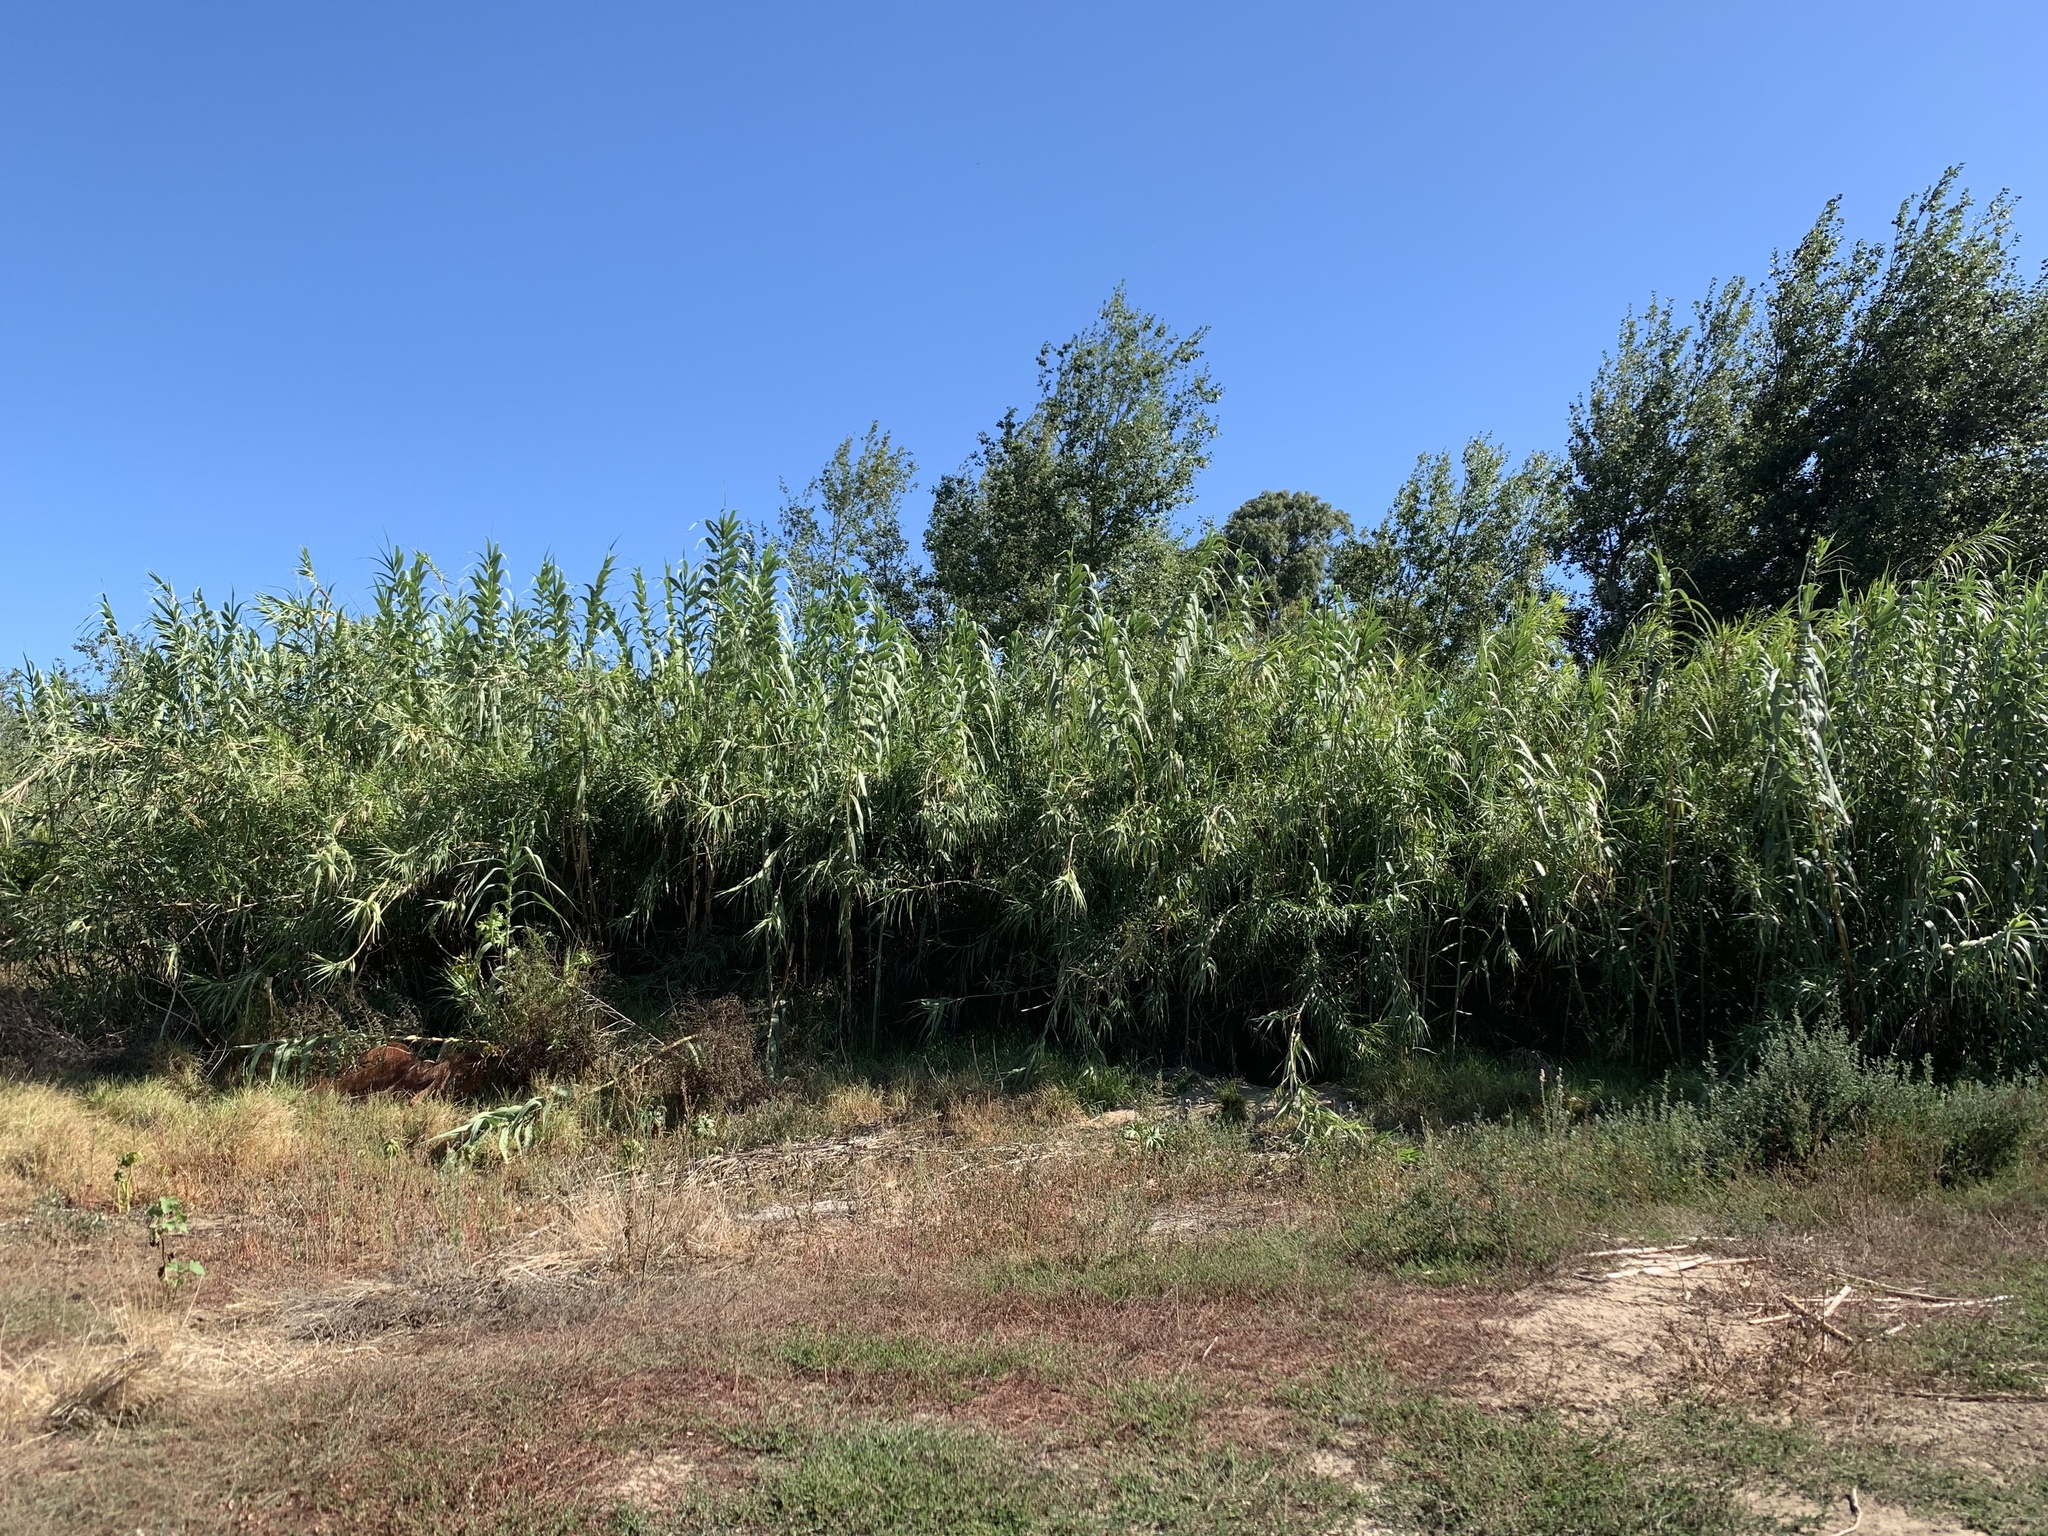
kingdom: Plantae
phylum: Tracheophyta
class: Liliopsida
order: Poales
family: Poaceae
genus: Arundo
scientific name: Arundo donax
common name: Giant reed
